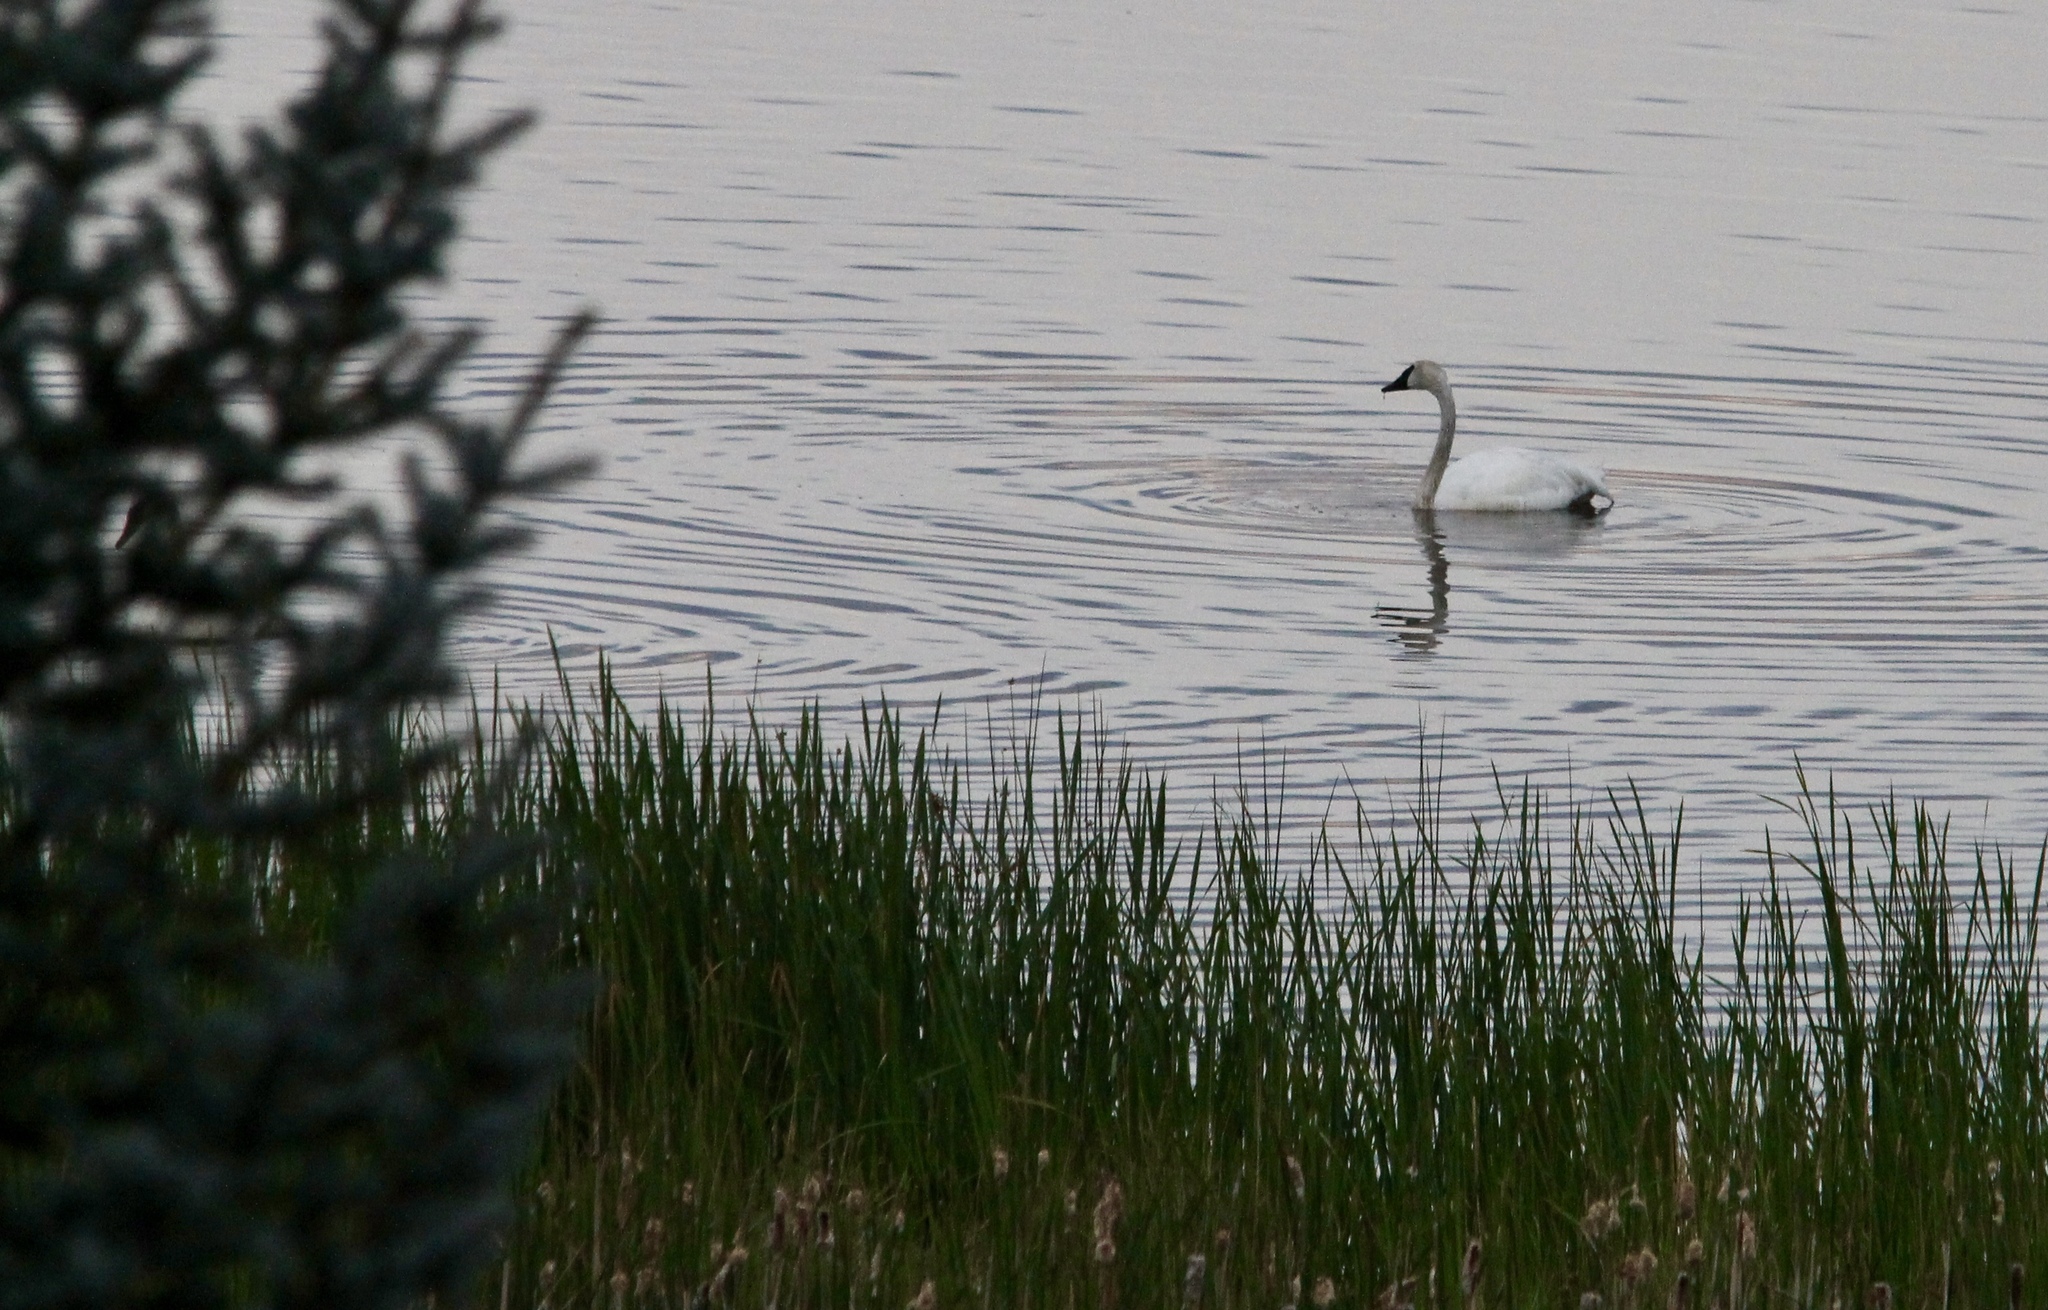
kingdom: Animalia
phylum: Chordata
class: Aves
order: Anseriformes
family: Anatidae
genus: Cygnus
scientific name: Cygnus buccinator
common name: Trumpeter swan
